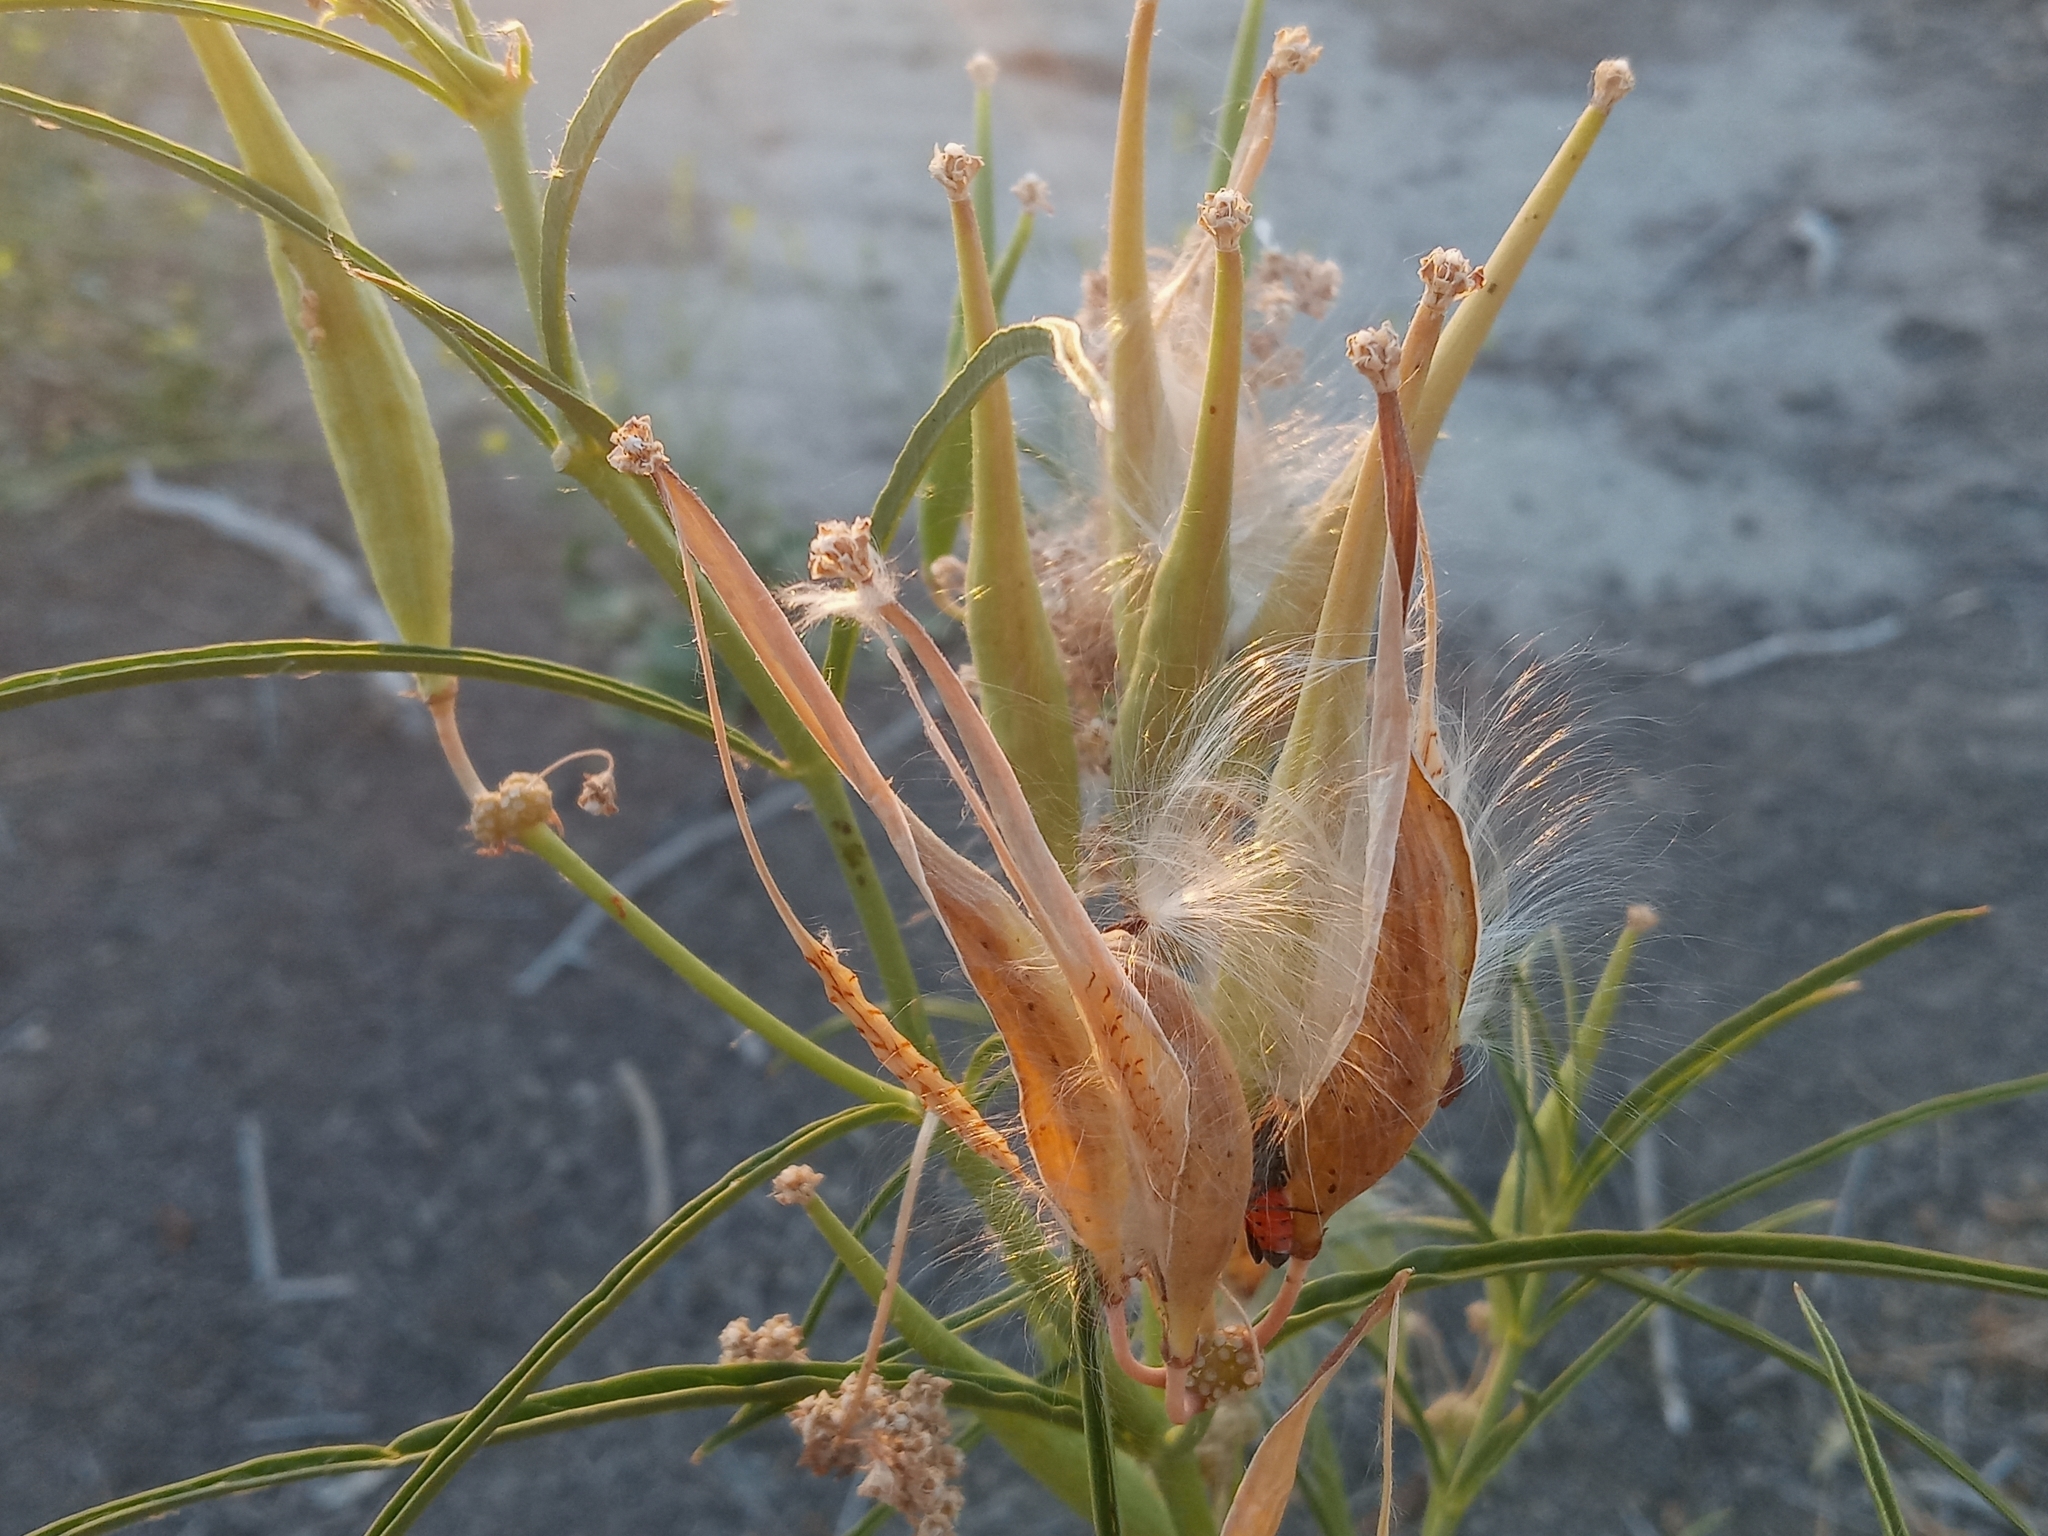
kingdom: Plantae
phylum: Tracheophyta
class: Magnoliopsida
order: Gentianales
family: Apocynaceae
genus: Asclepias
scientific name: Asclepias fascicularis
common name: Mexican milkweed
